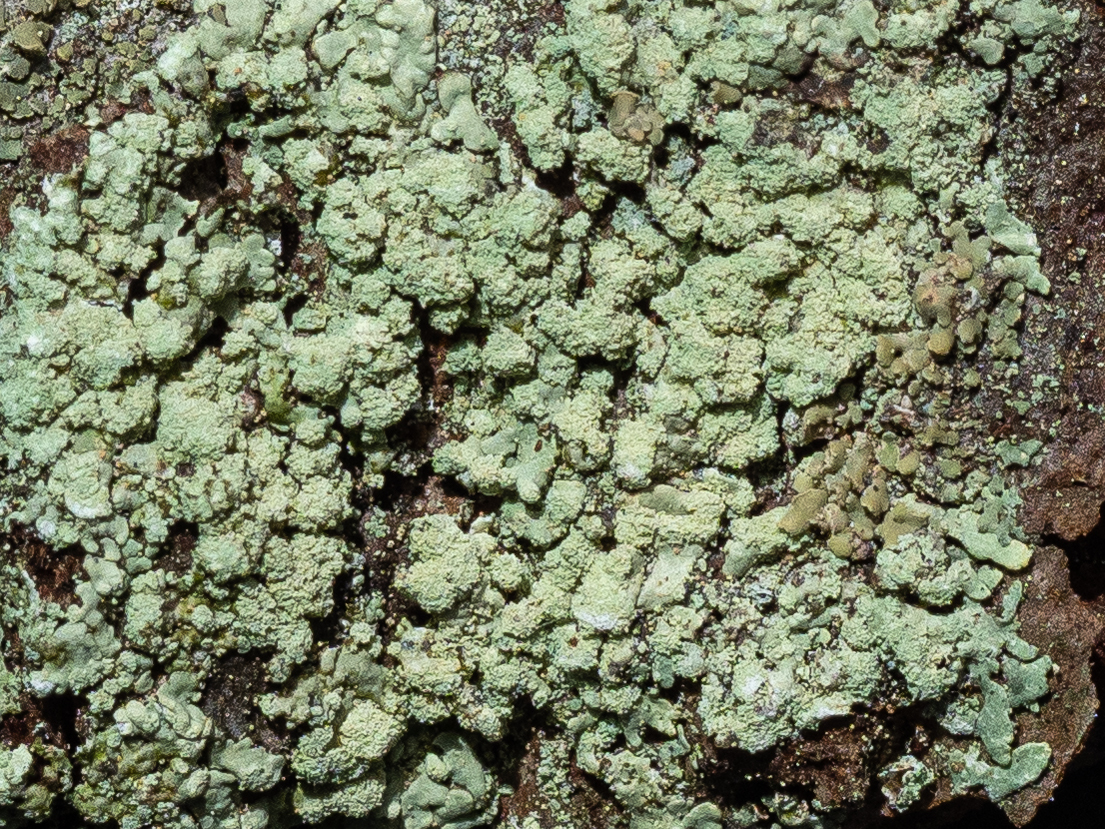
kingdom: Fungi
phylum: Ascomycota
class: Lecanoromycetes
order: Lecanorales
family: Parmeliaceae
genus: Parmeliopsis
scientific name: Parmeliopsis ambigua
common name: Green starburst lichen
